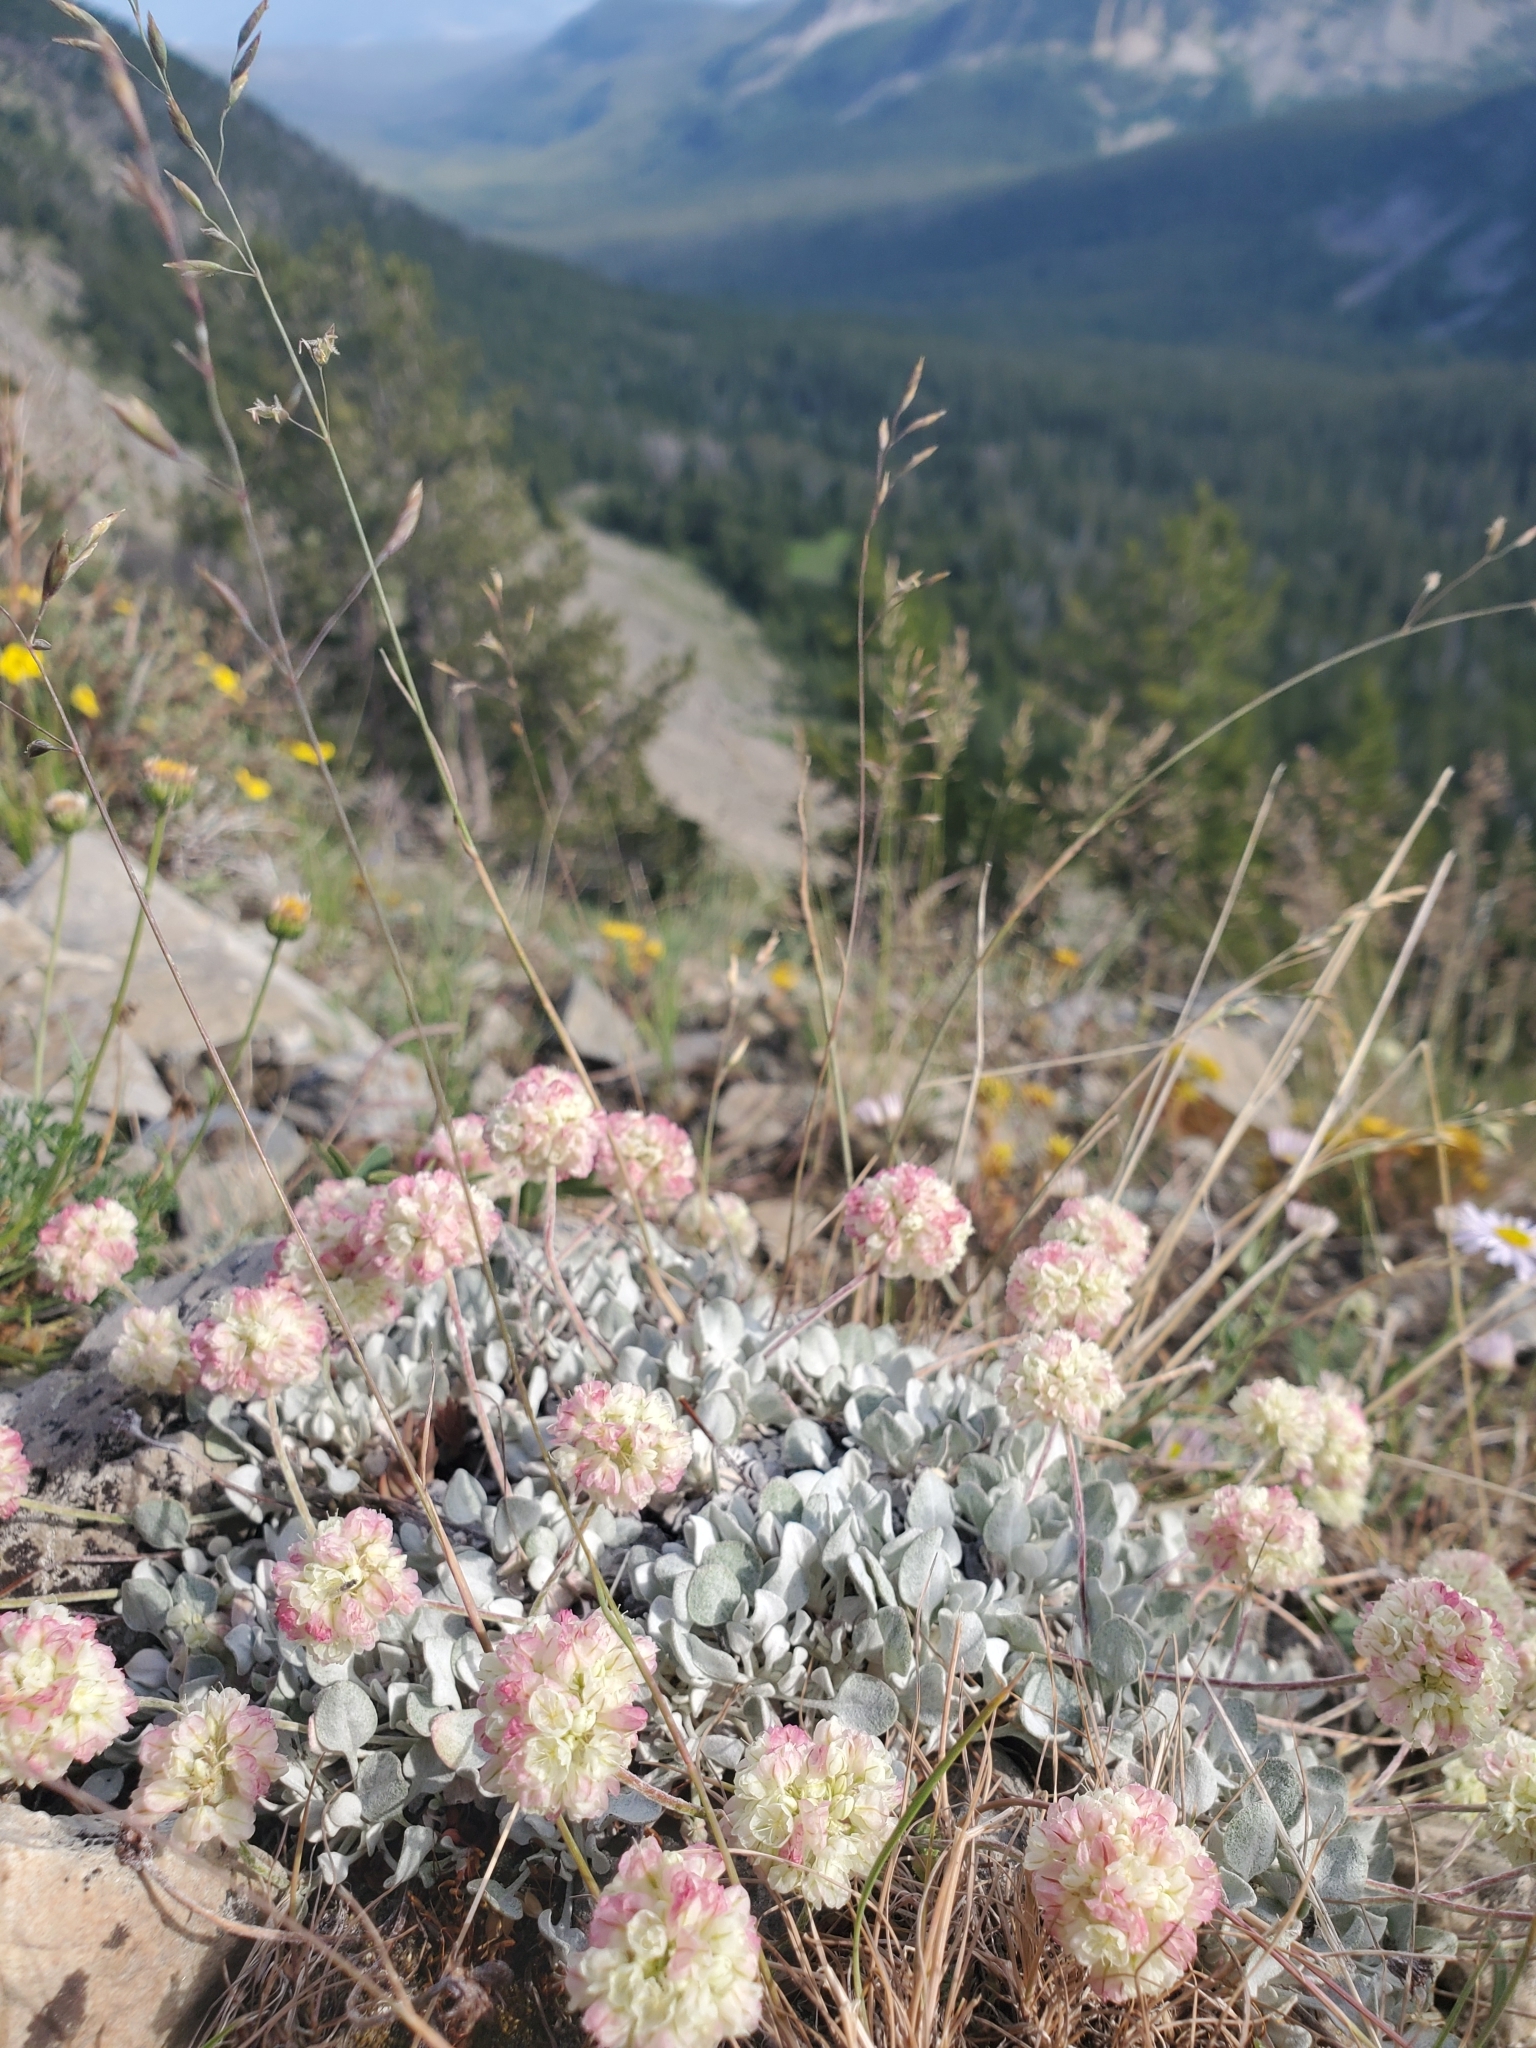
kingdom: Plantae
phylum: Tracheophyta
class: Magnoliopsida
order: Caryophyllales
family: Polygonaceae
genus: Eriogonum
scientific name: Eriogonum ovalifolium
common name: Cushion buckwheat
